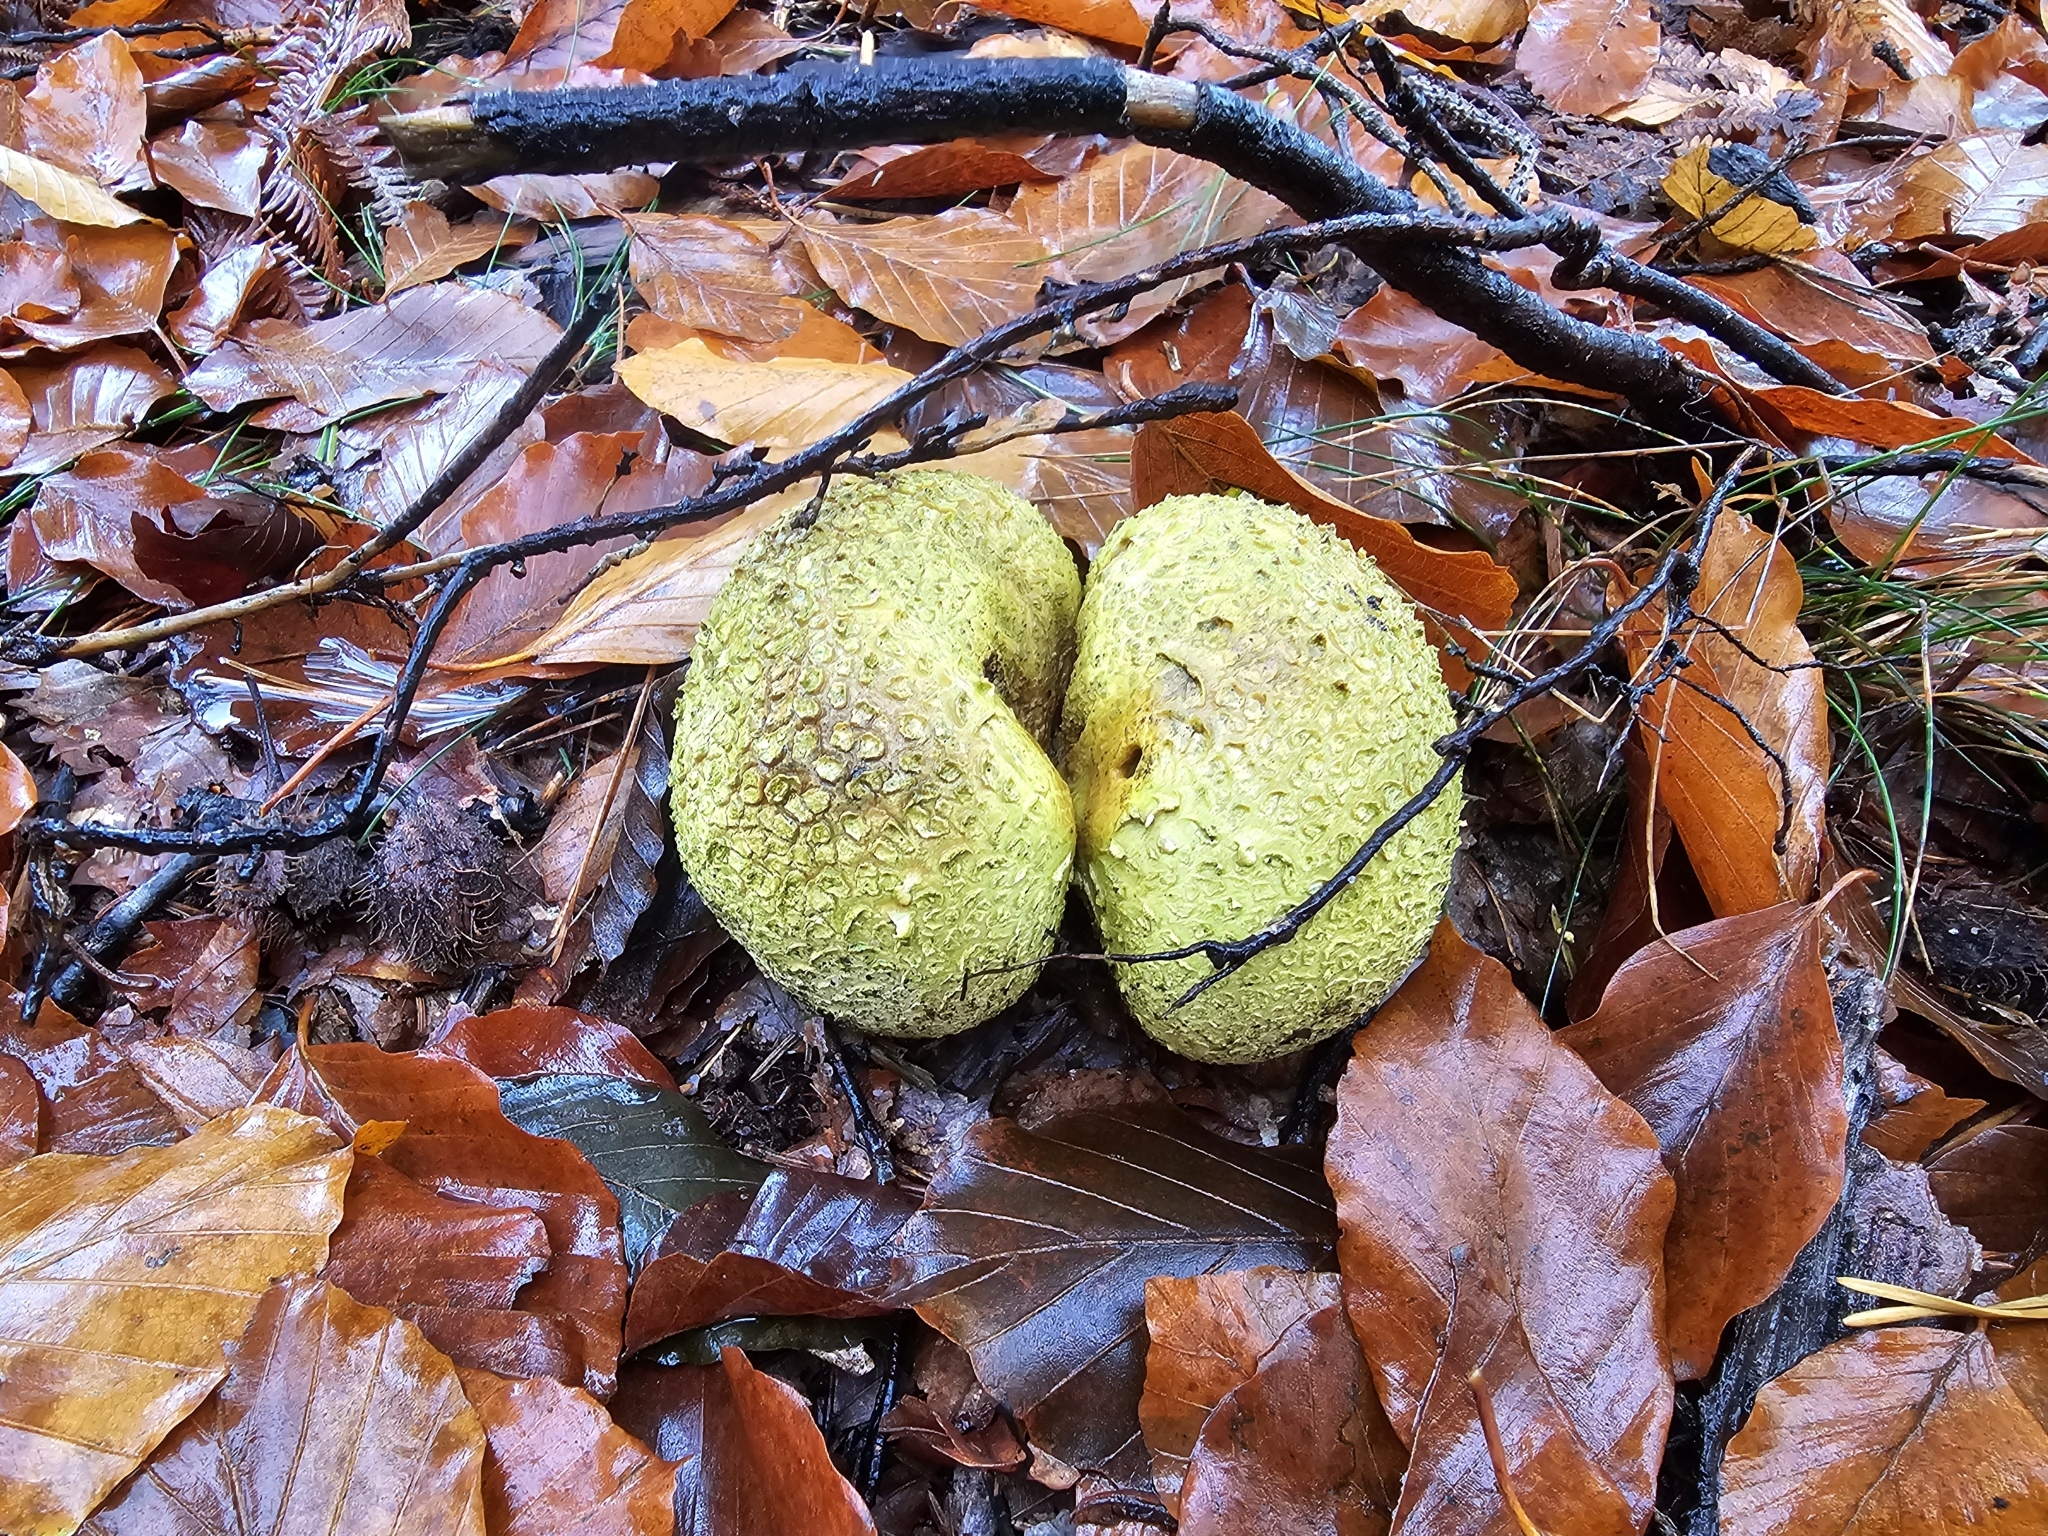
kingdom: Fungi
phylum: Basidiomycota
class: Agaricomycetes
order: Boletales
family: Sclerodermataceae
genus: Scleroderma
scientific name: Scleroderma citrinum
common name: Common earthball
